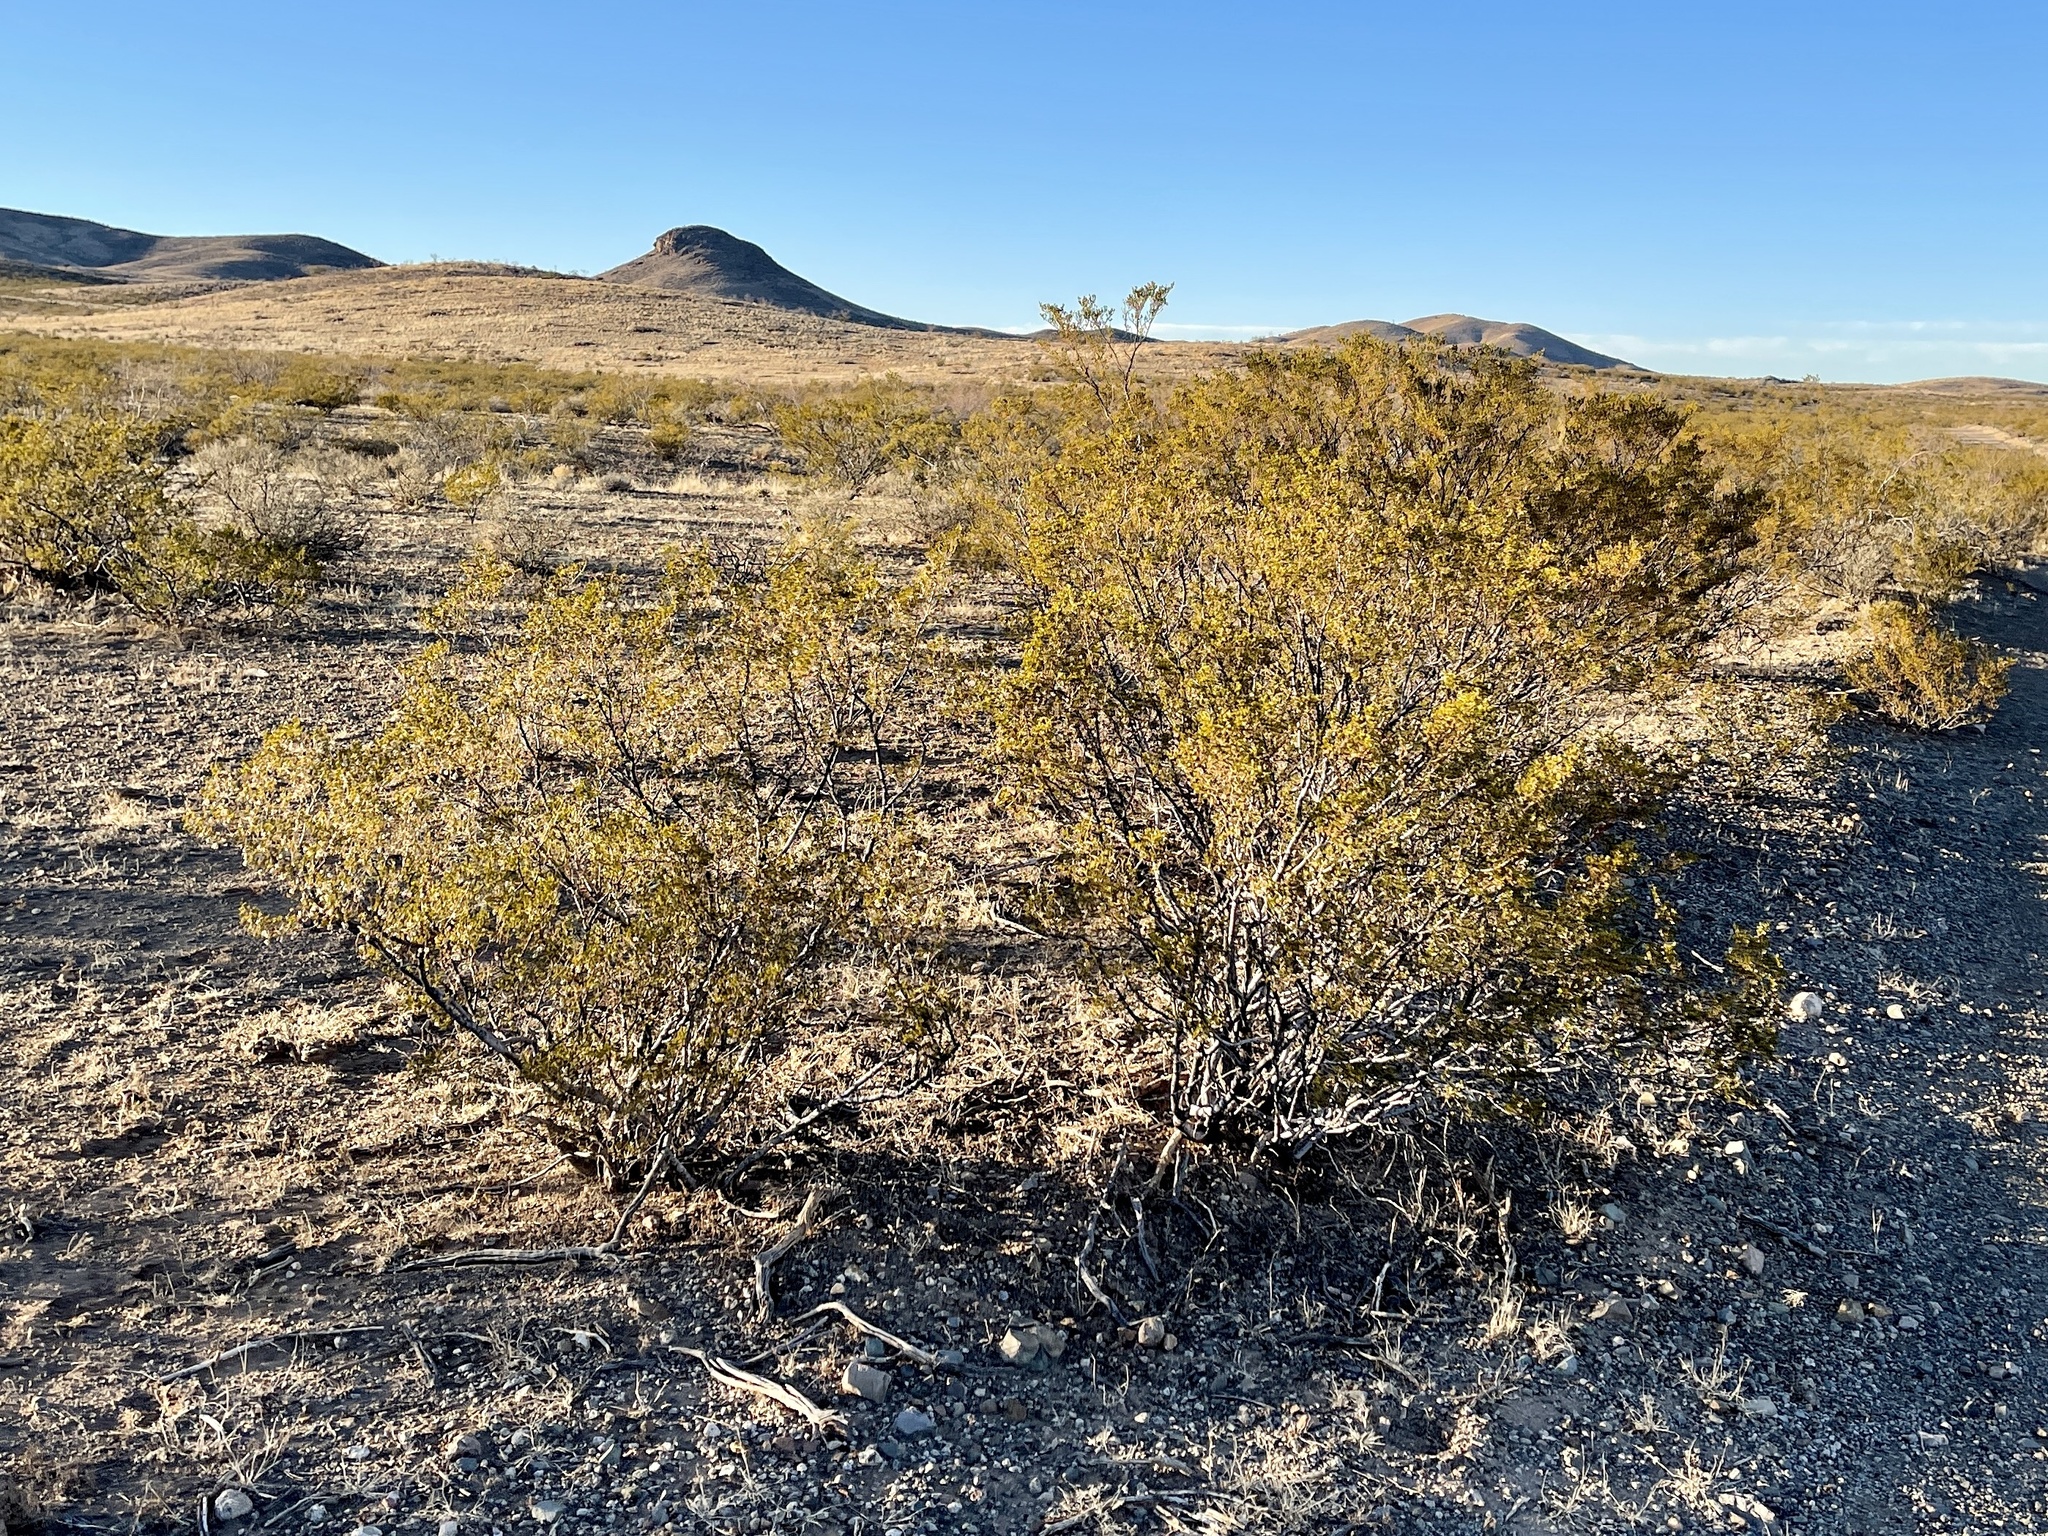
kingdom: Plantae
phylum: Tracheophyta
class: Magnoliopsida
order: Zygophyllales
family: Zygophyllaceae
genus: Larrea
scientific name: Larrea tridentata
